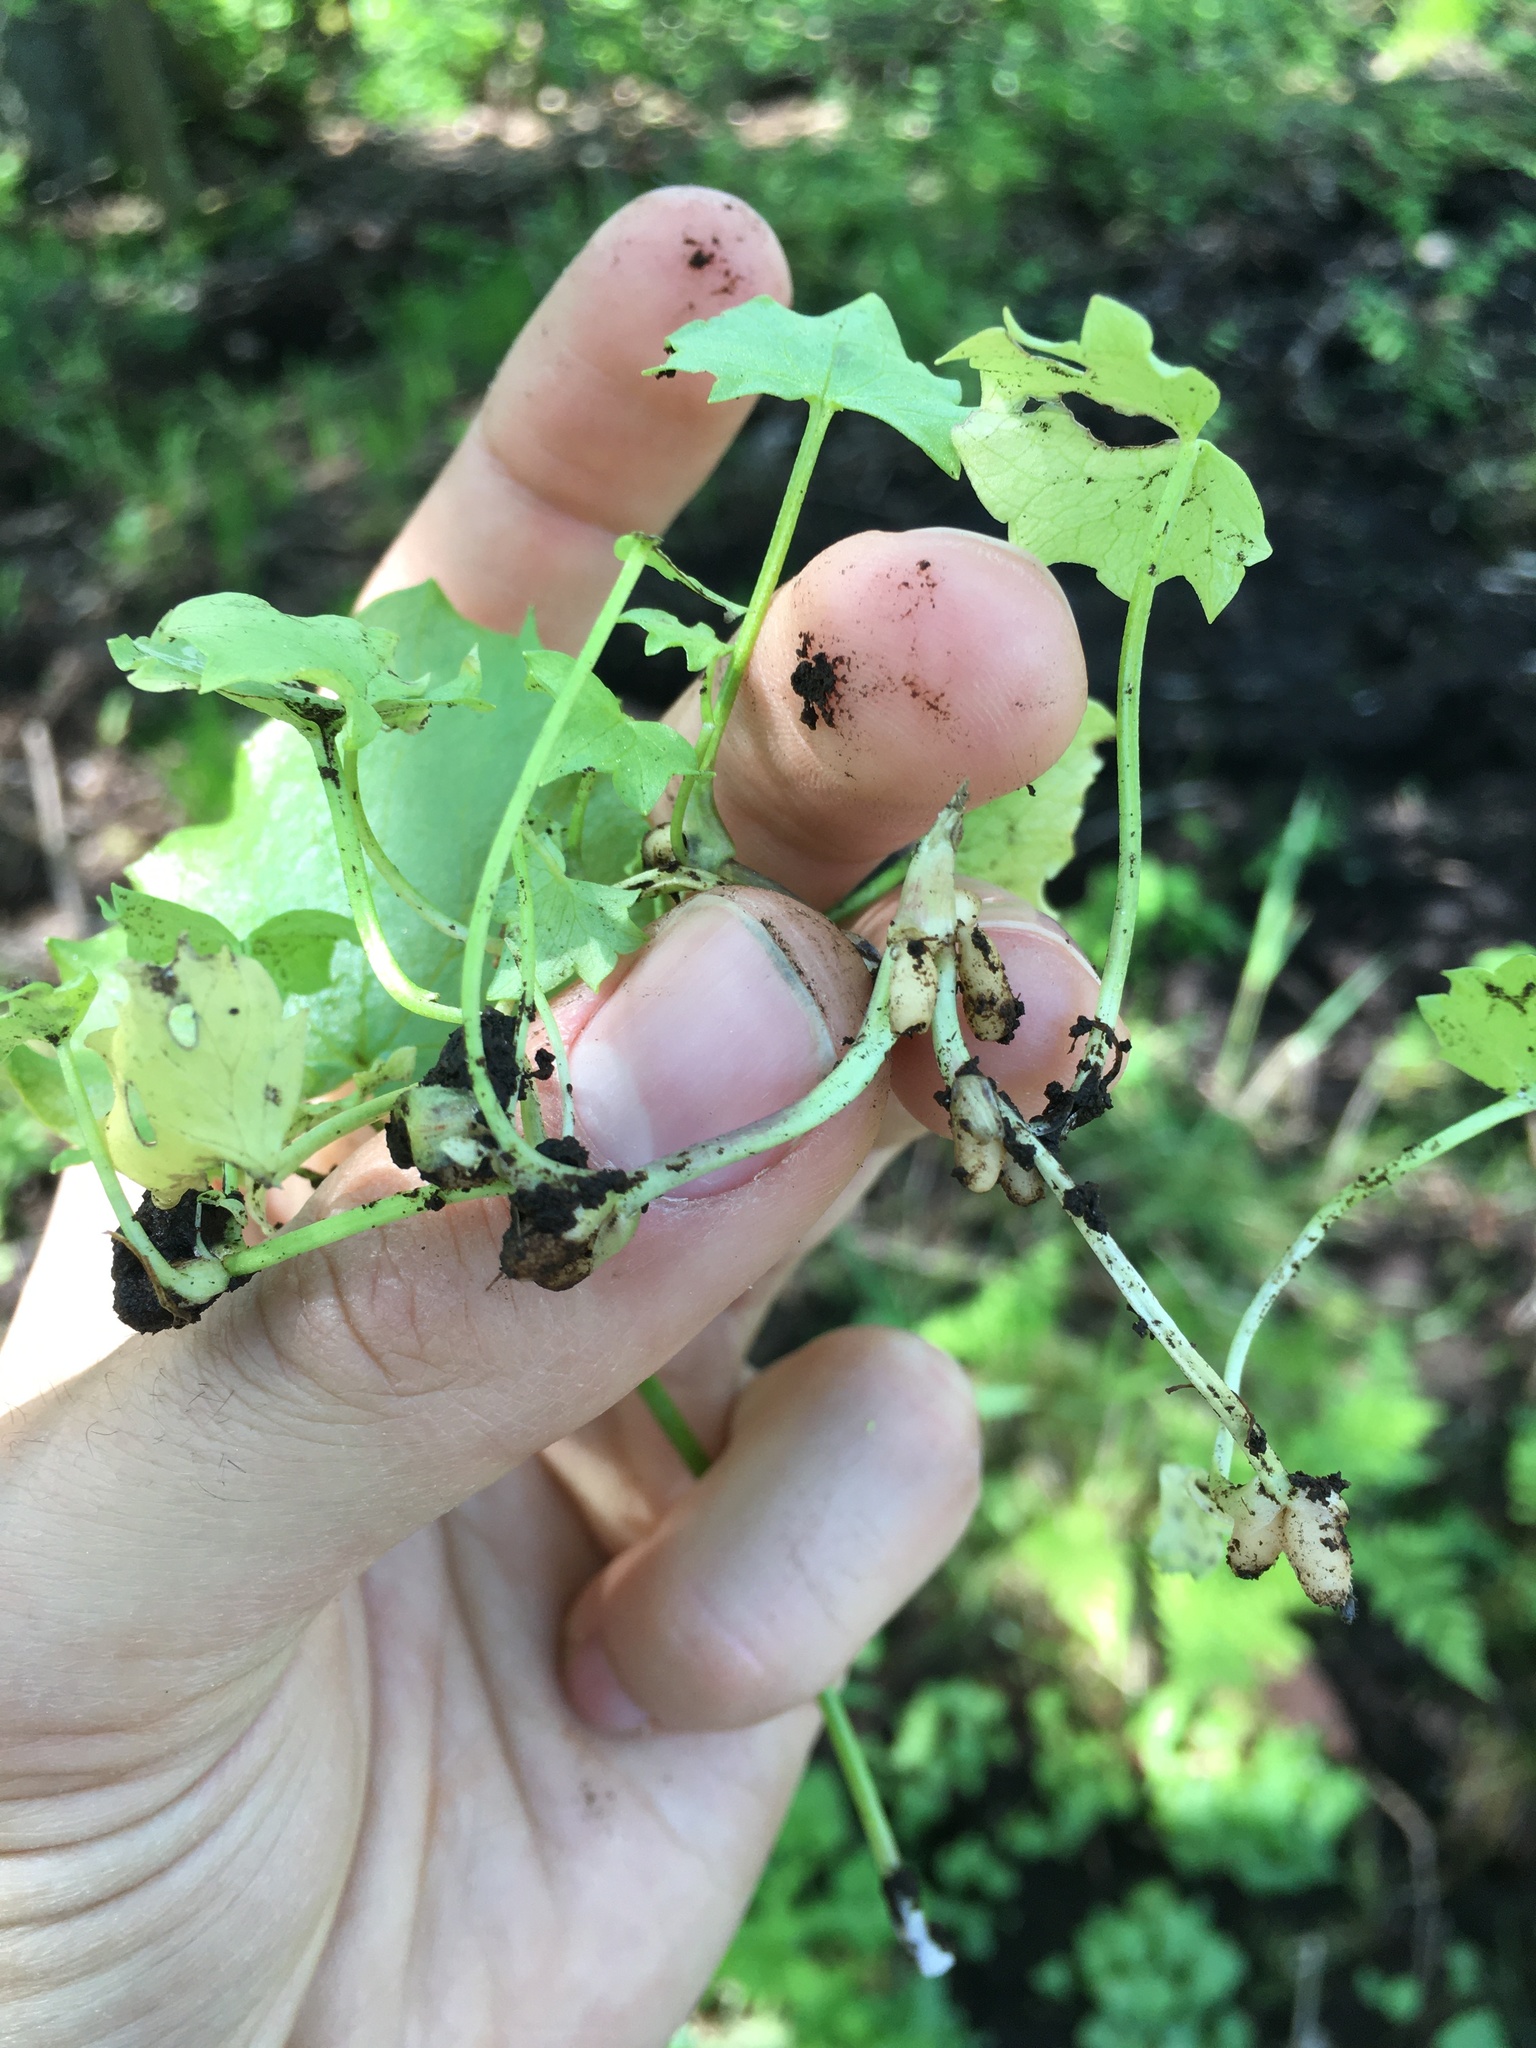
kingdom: Plantae
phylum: Tracheophyta
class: Magnoliopsida
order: Ranunculales
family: Ranunculaceae
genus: Ficaria
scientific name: Ficaria verna
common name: Lesser celandine
